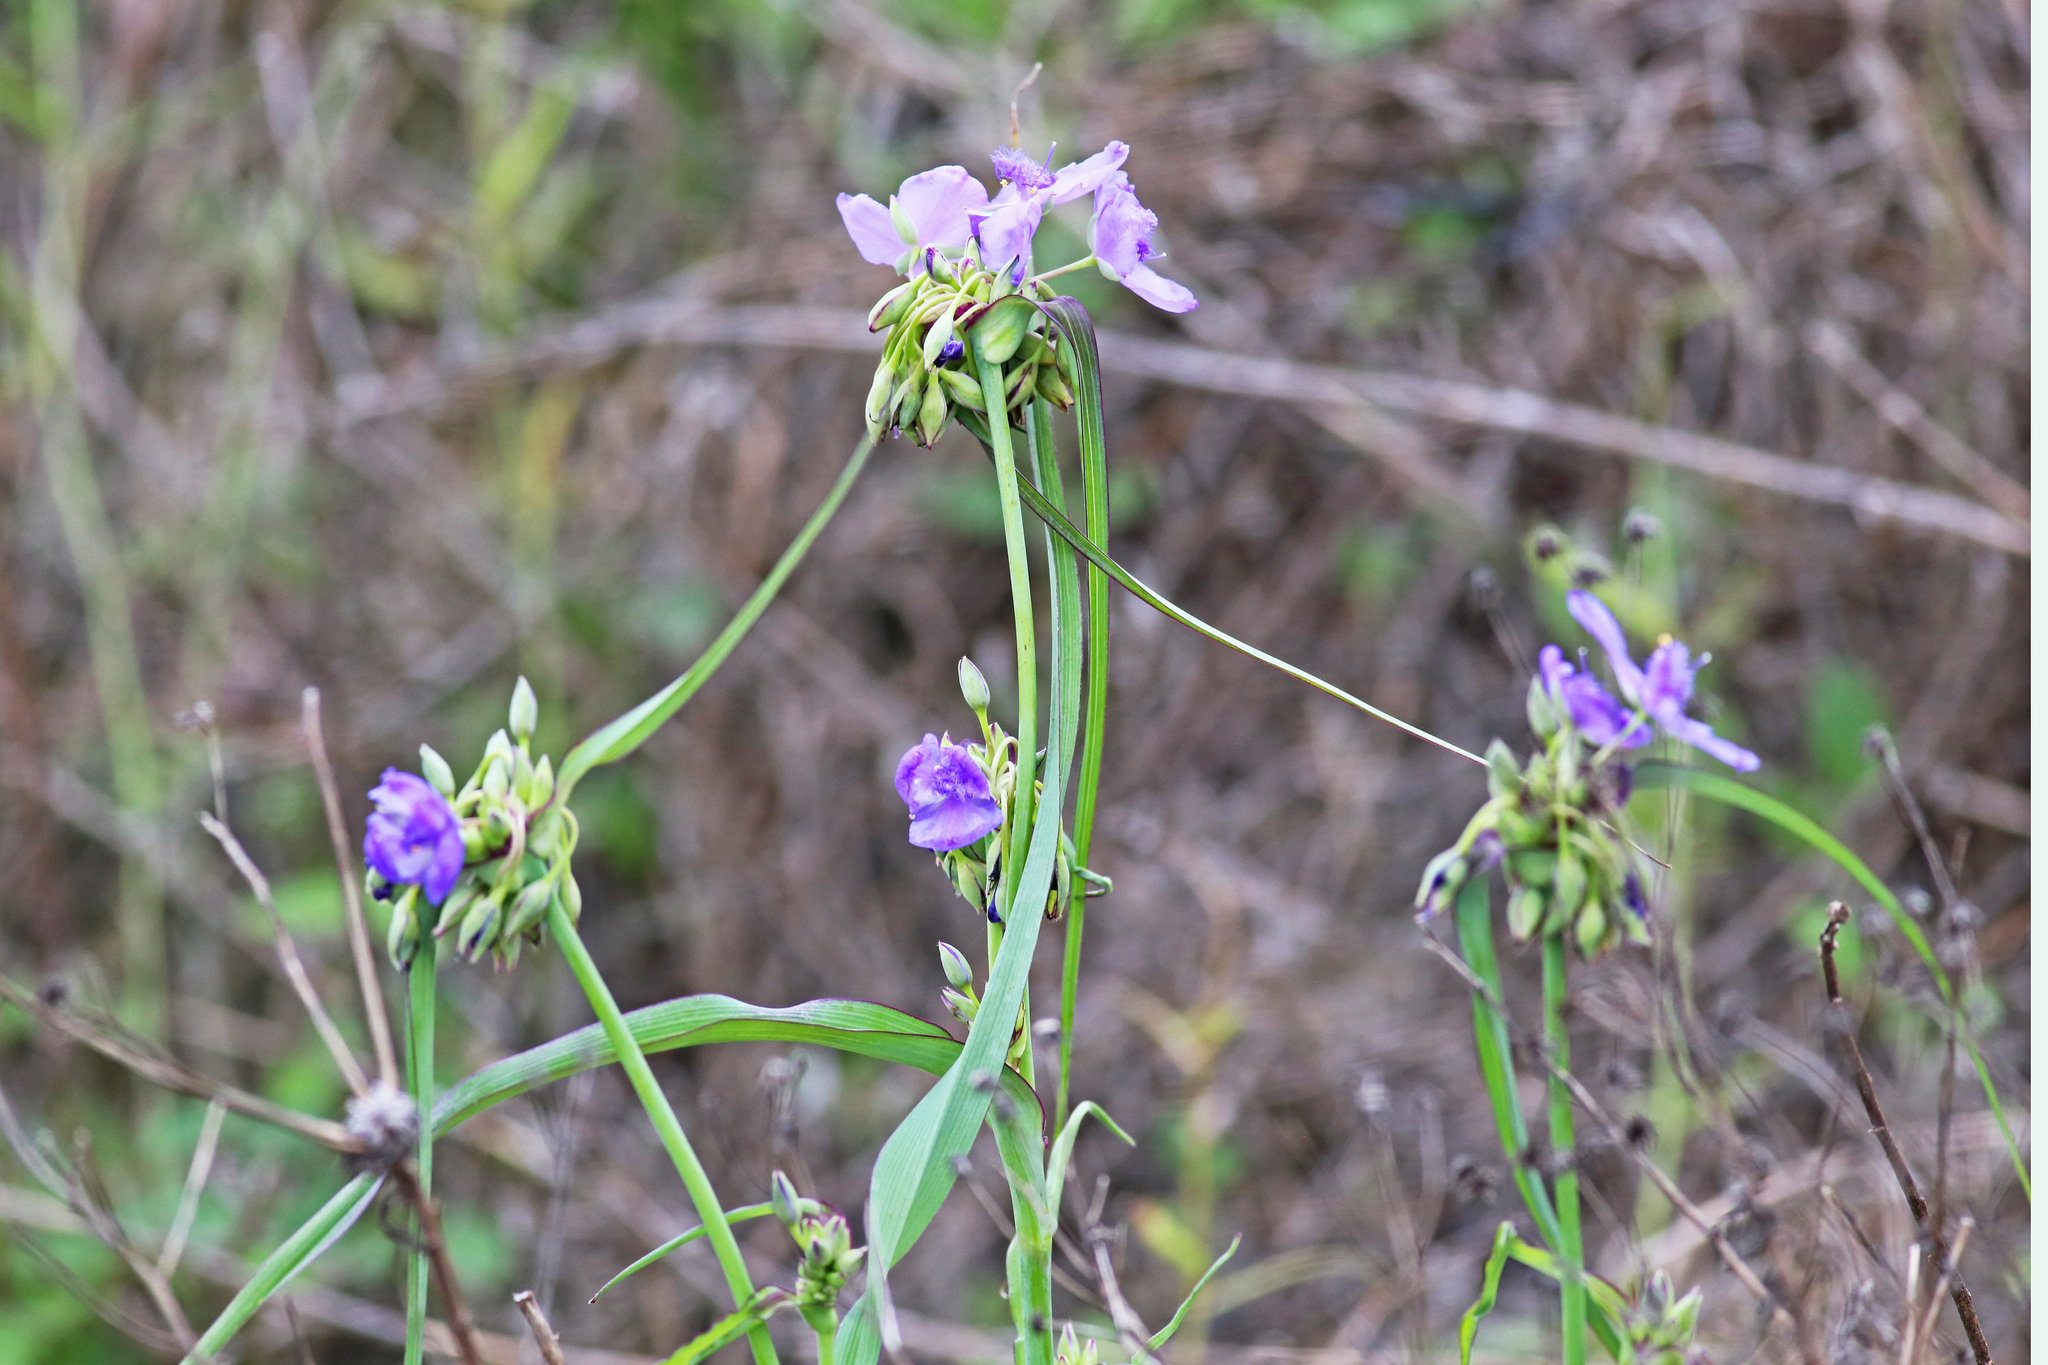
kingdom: Plantae
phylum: Tracheophyta
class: Liliopsida
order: Commelinales
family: Commelinaceae
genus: Tradescantia
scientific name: Tradescantia ohiensis
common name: Ohio spiderwort
